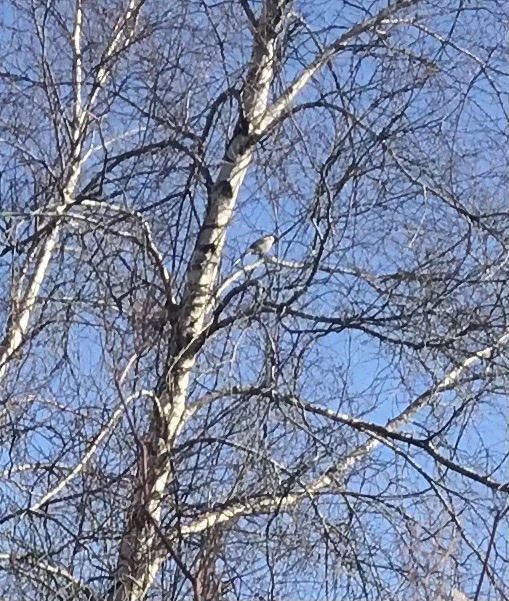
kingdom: Animalia
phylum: Chordata
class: Aves
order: Passeriformes
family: Corvidae
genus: Cyanocitta
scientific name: Cyanocitta cristata
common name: Blue jay
